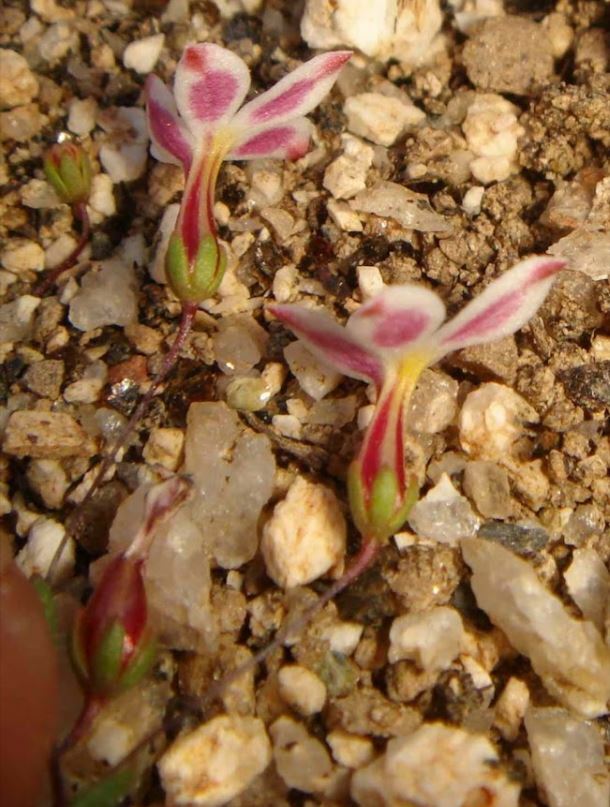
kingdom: Plantae
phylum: Tracheophyta
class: Magnoliopsida
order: Asterales
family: Campanulaceae
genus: Nemacladus
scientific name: Nemacladus longiflorus
